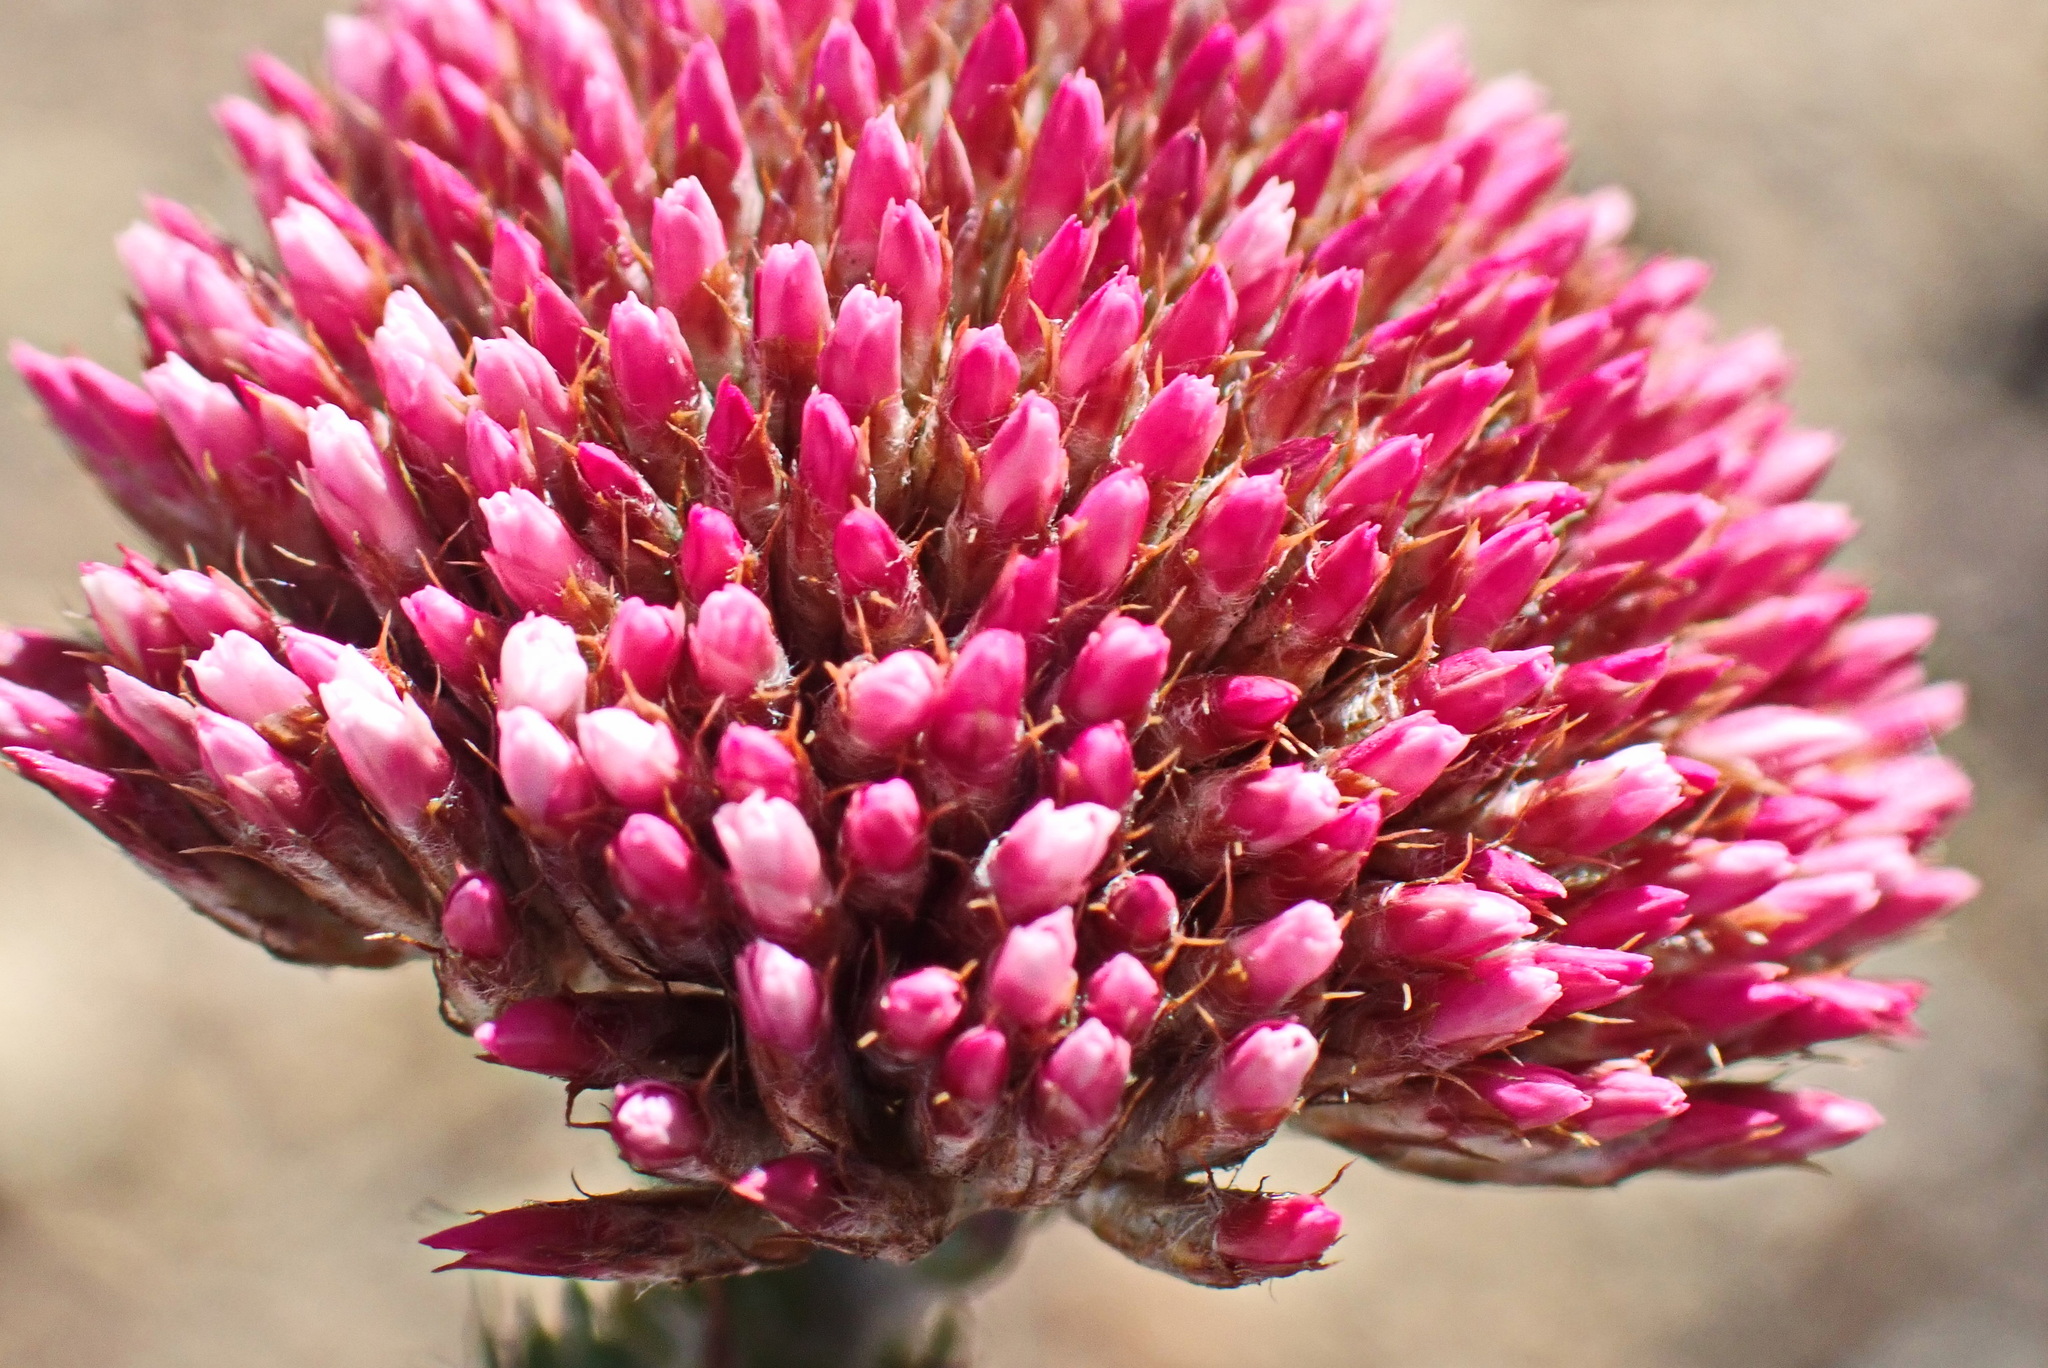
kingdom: Plantae
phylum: Tracheophyta
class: Magnoliopsida
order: Asterales
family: Asteraceae
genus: Metalasia
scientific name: Metalasia pungens
